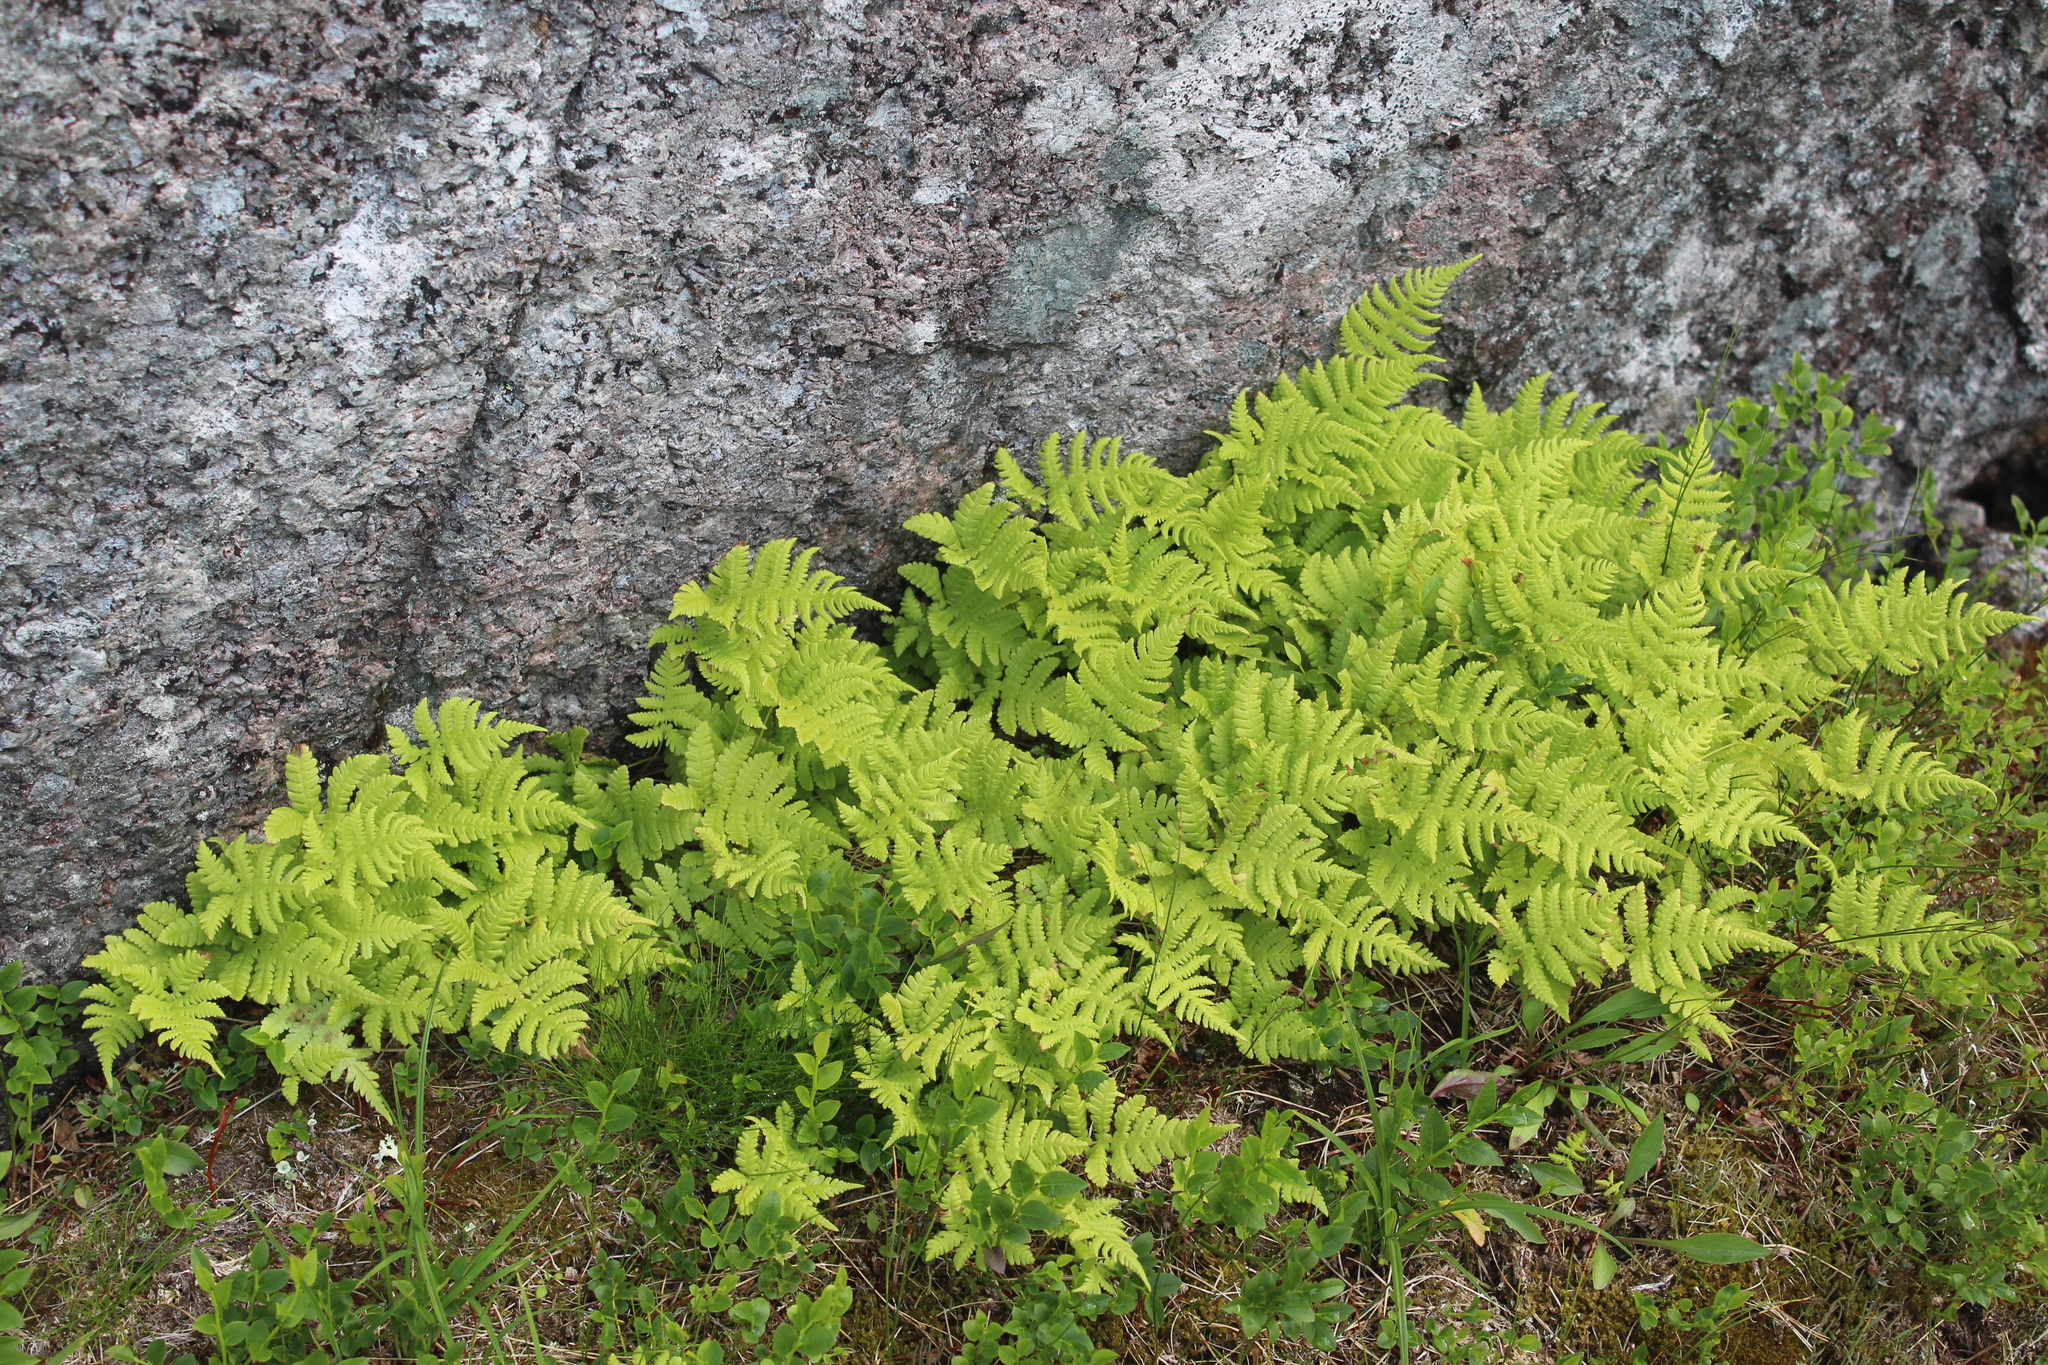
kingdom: Plantae
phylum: Tracheophyta
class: Polypodiopsida
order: Polypodiales
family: Thelypteridaceae
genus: Phegopteris
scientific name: Phegopteris connectilis
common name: Beech fern
